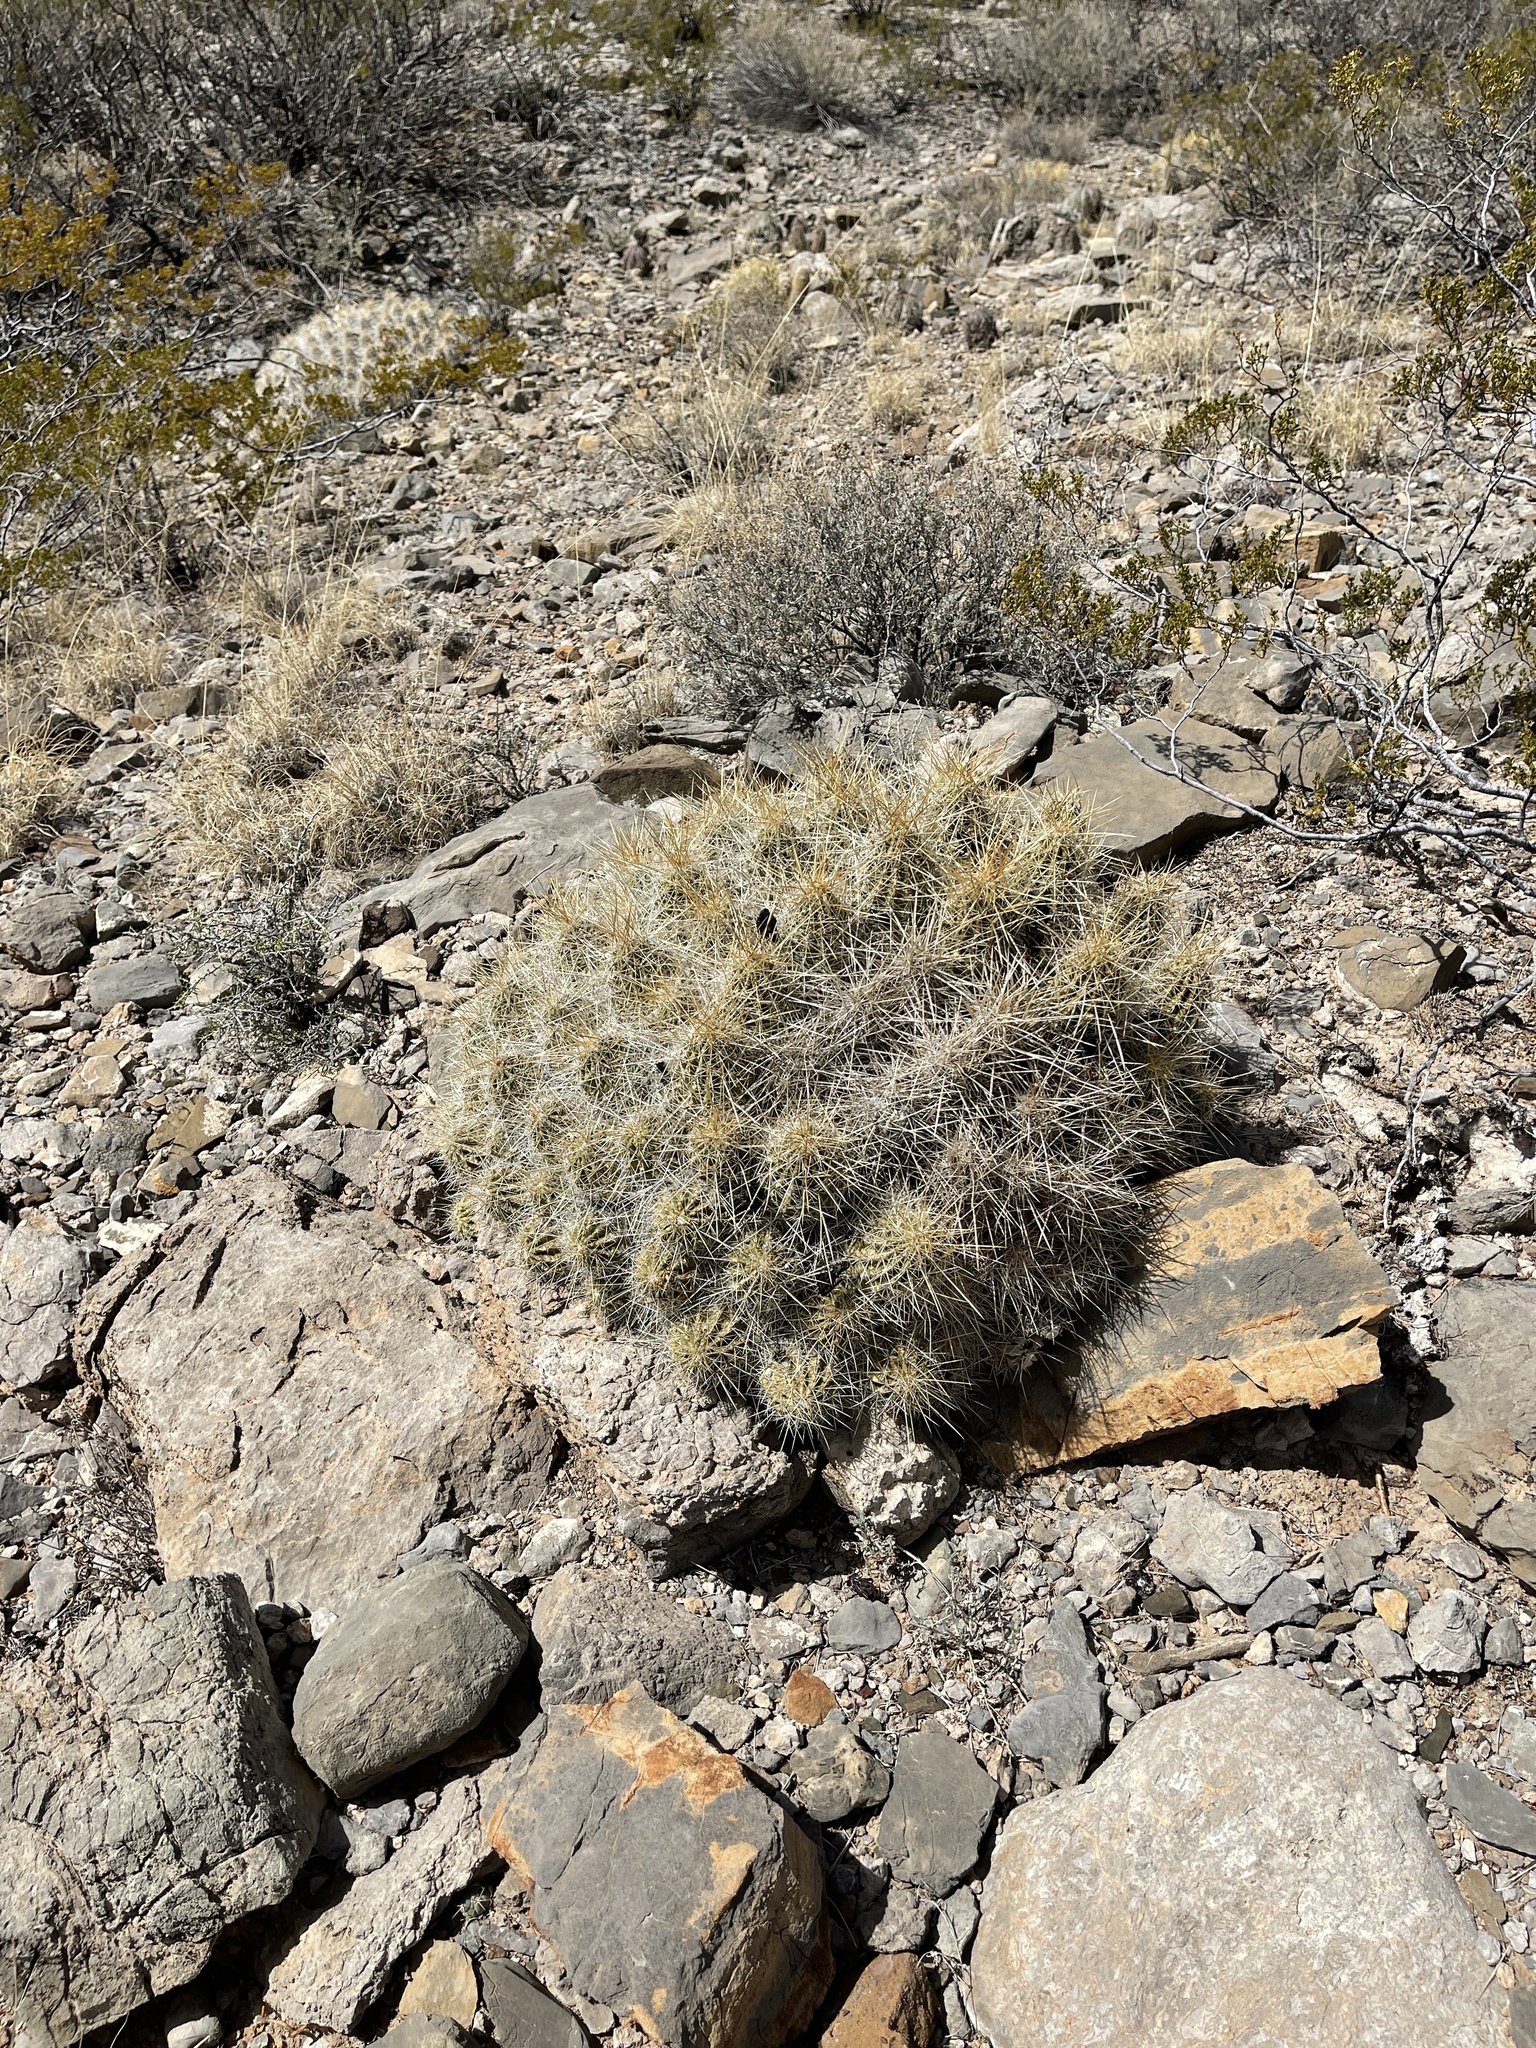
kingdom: Plantae
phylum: Tracheophyta
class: Magnoliopsida
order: Caryophyllales
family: Cactaceae
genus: Echinocereus
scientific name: Echinocereus stramineus
